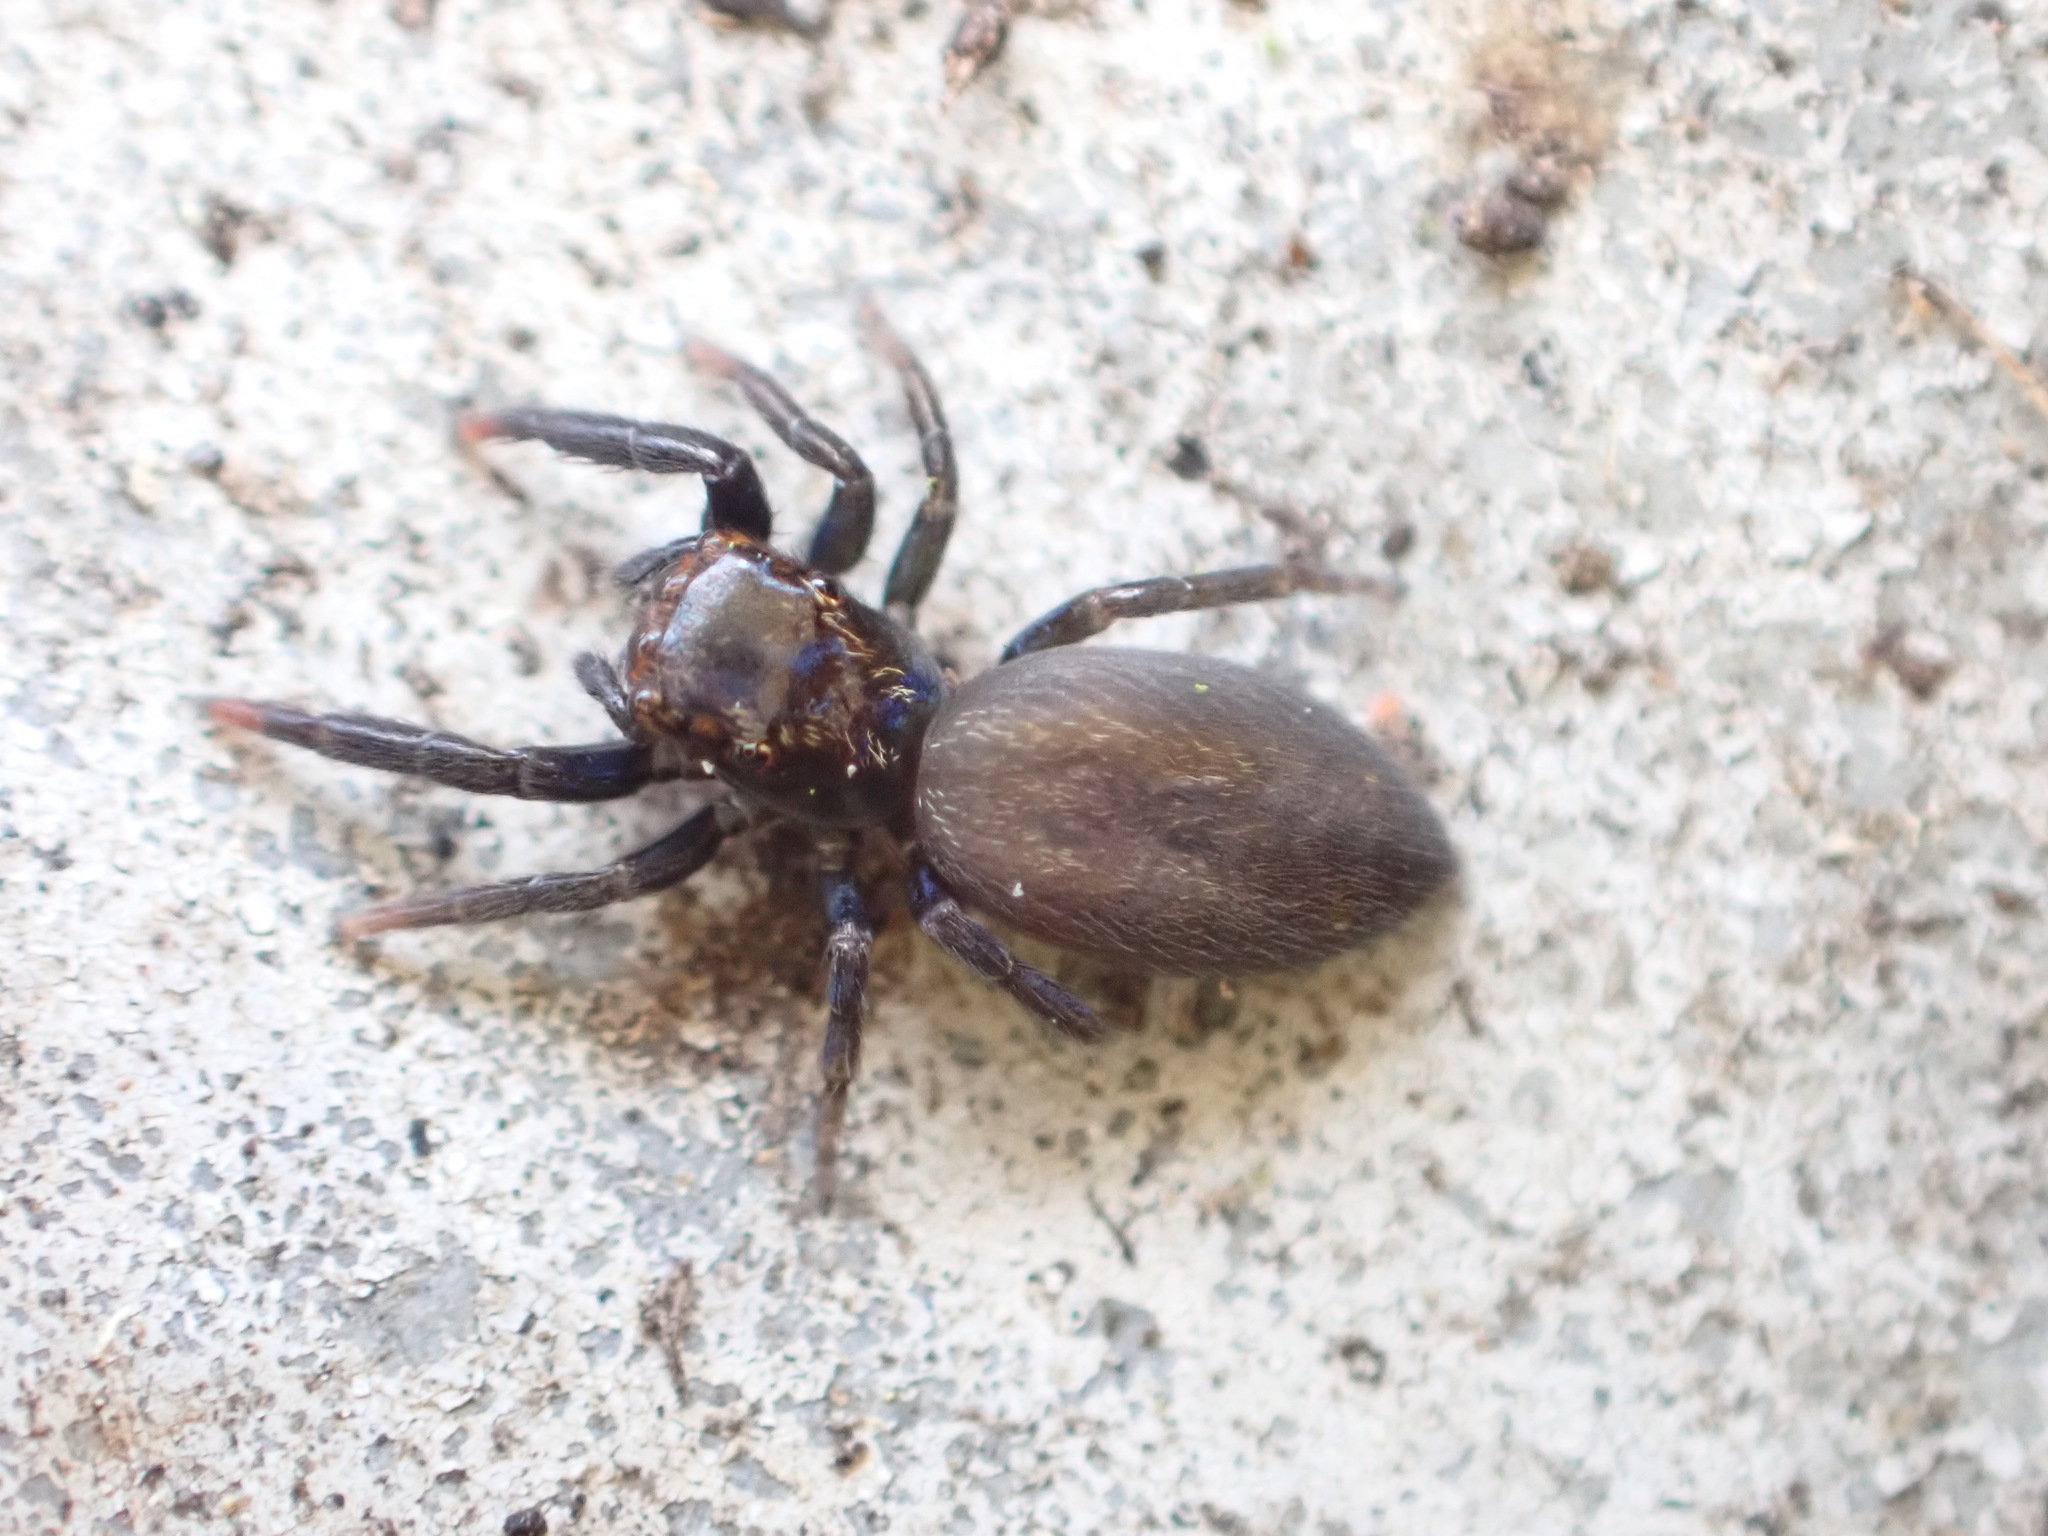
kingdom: Animalia
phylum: Arthropoda
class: Arachnida
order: Araneae
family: Salticidae
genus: Trite
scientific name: Trite auricoma
